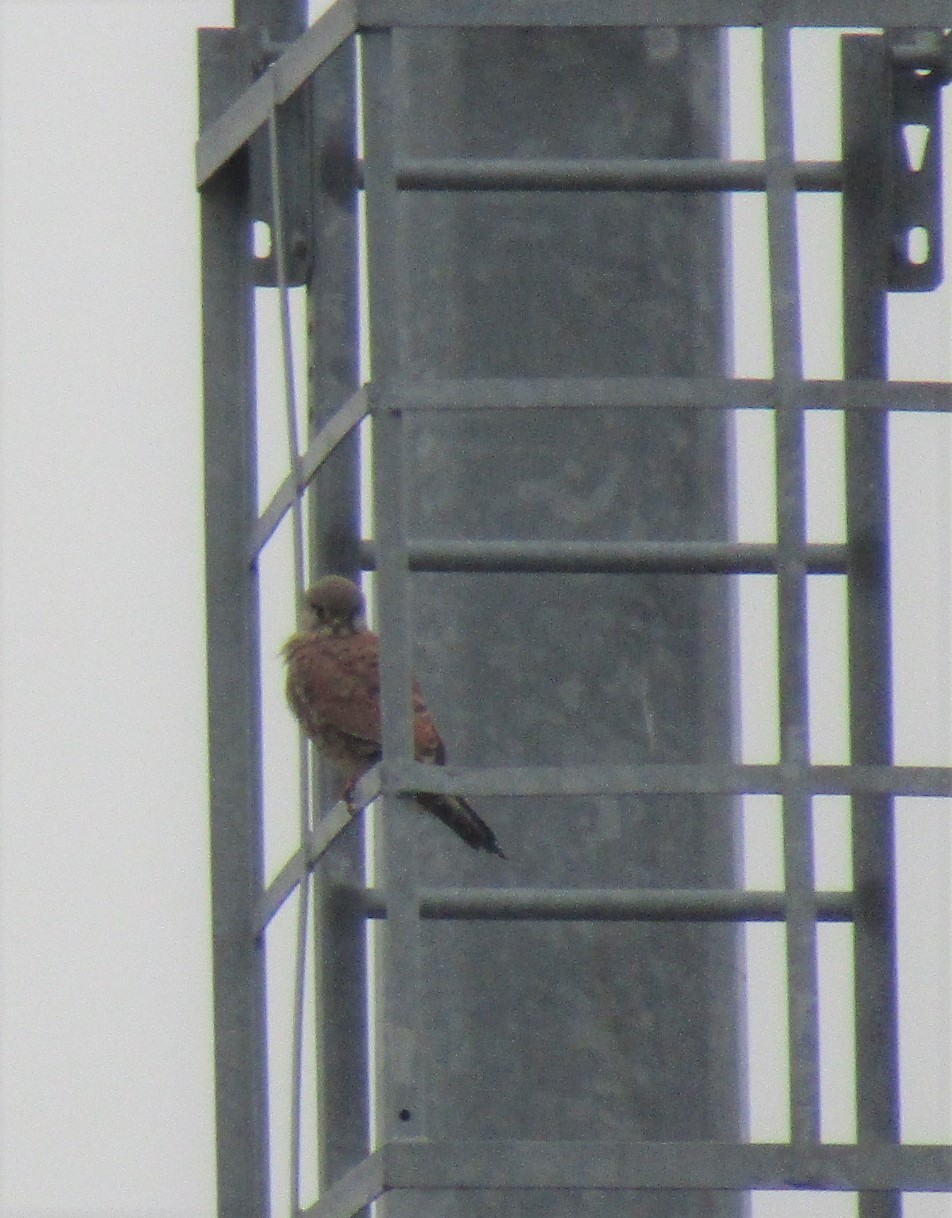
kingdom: Animalia
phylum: Chordata
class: Aves
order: Falconiformes
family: Falconidae
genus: Falco
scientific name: Falco tinnunculus
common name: Common kestrel
